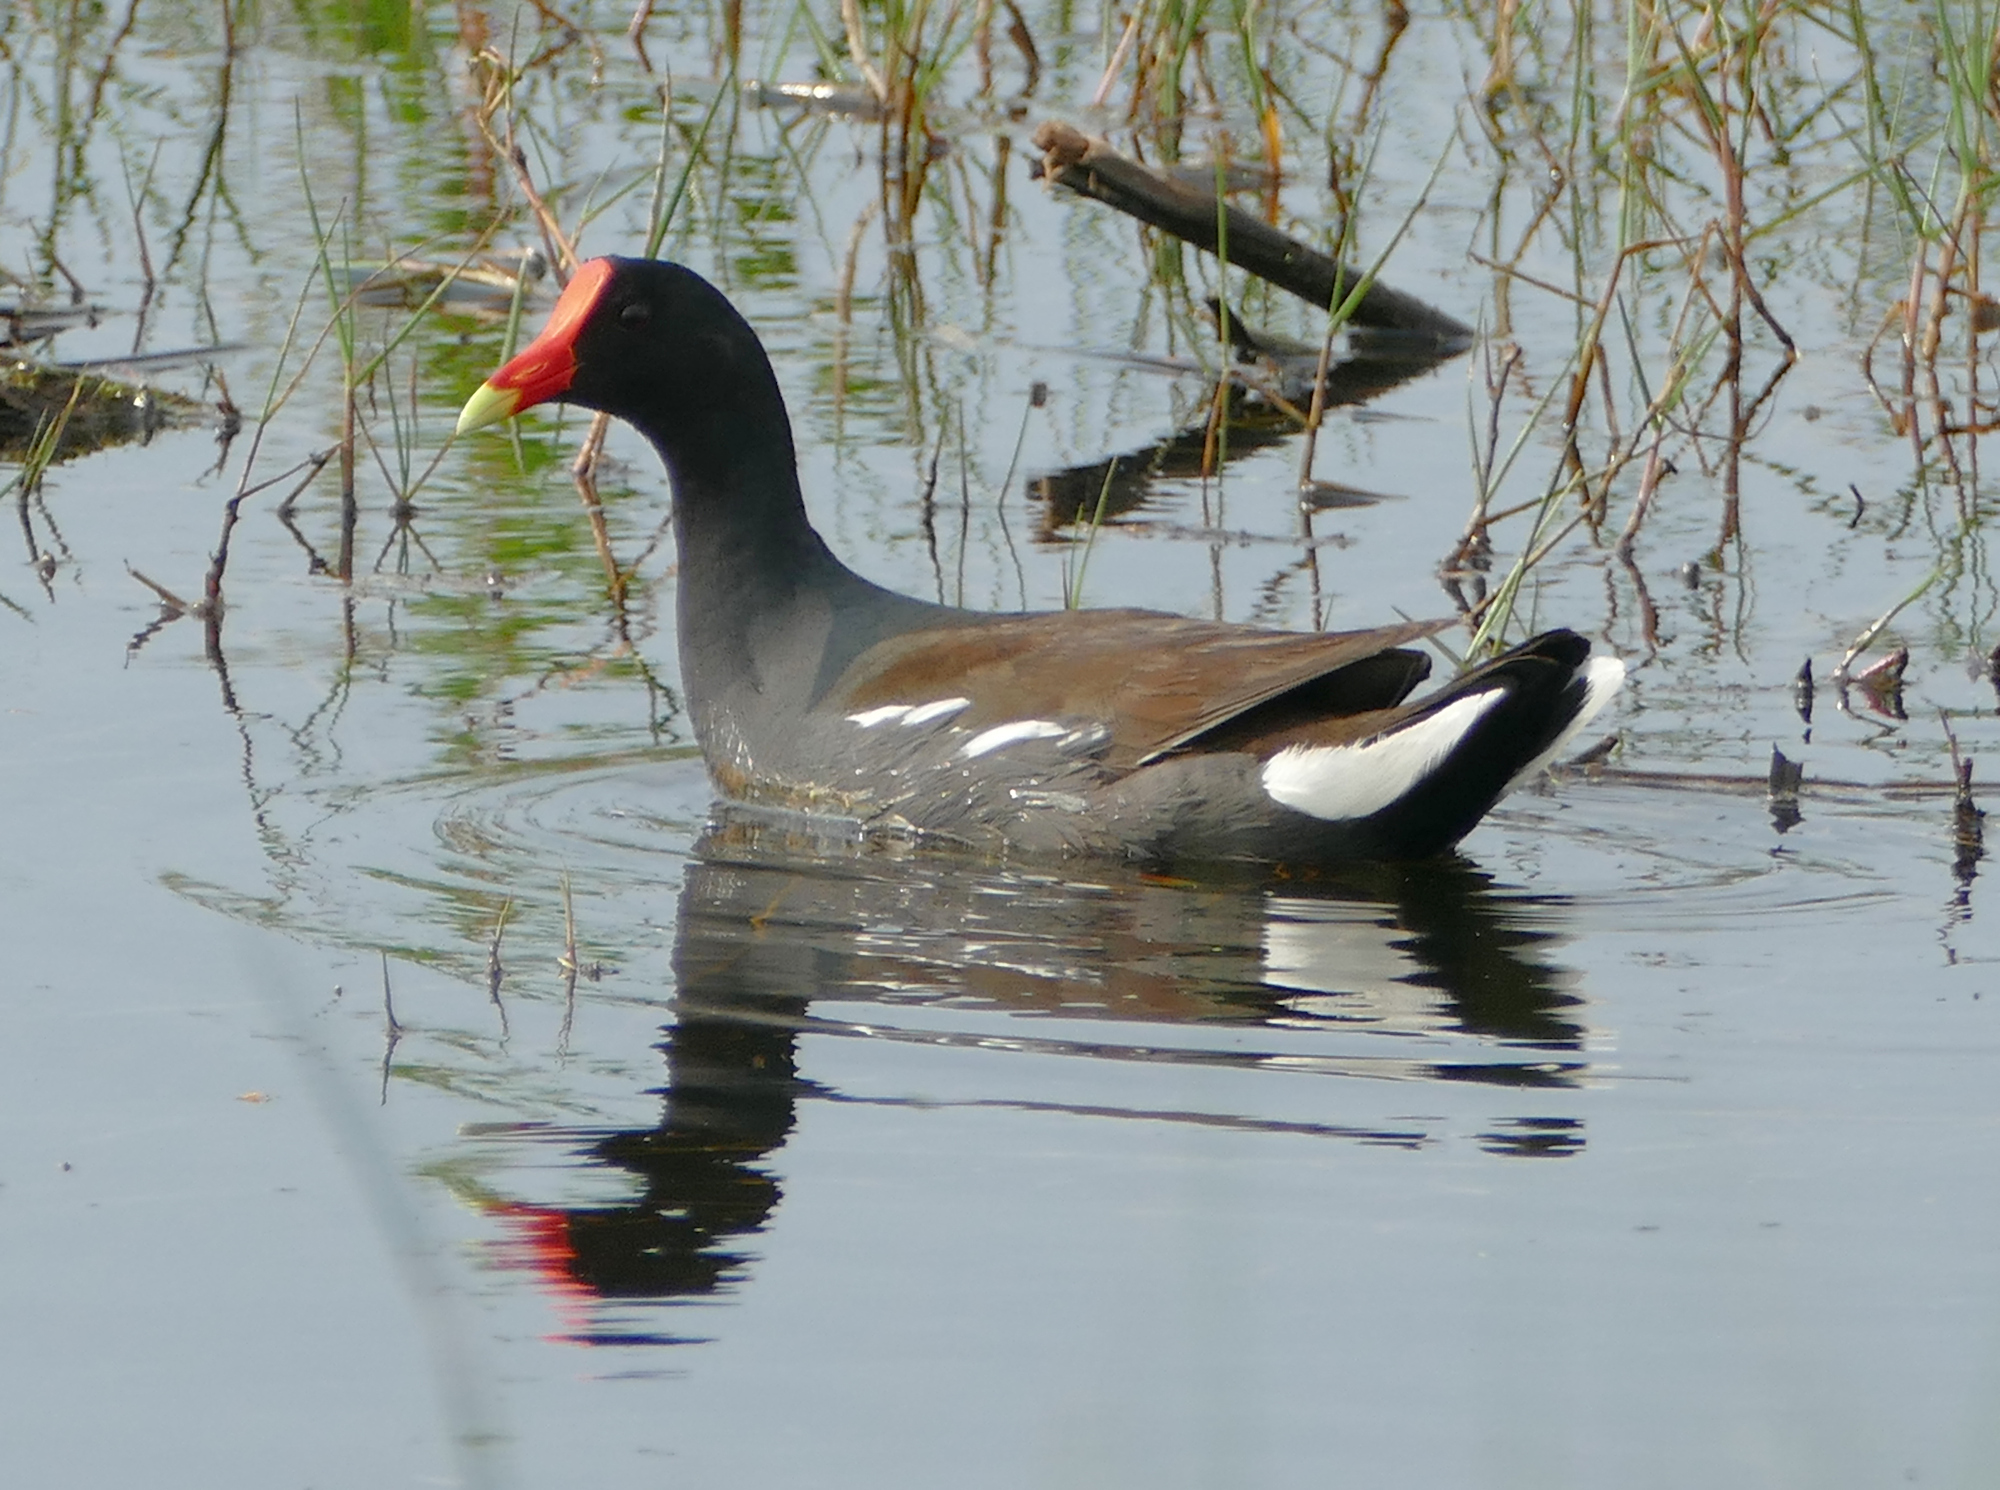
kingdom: Animalia
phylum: Chordata
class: Aves
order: Gruiformes
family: Rallidae
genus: Gallinula
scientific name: Gallinula chloropus
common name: Common moorhen
